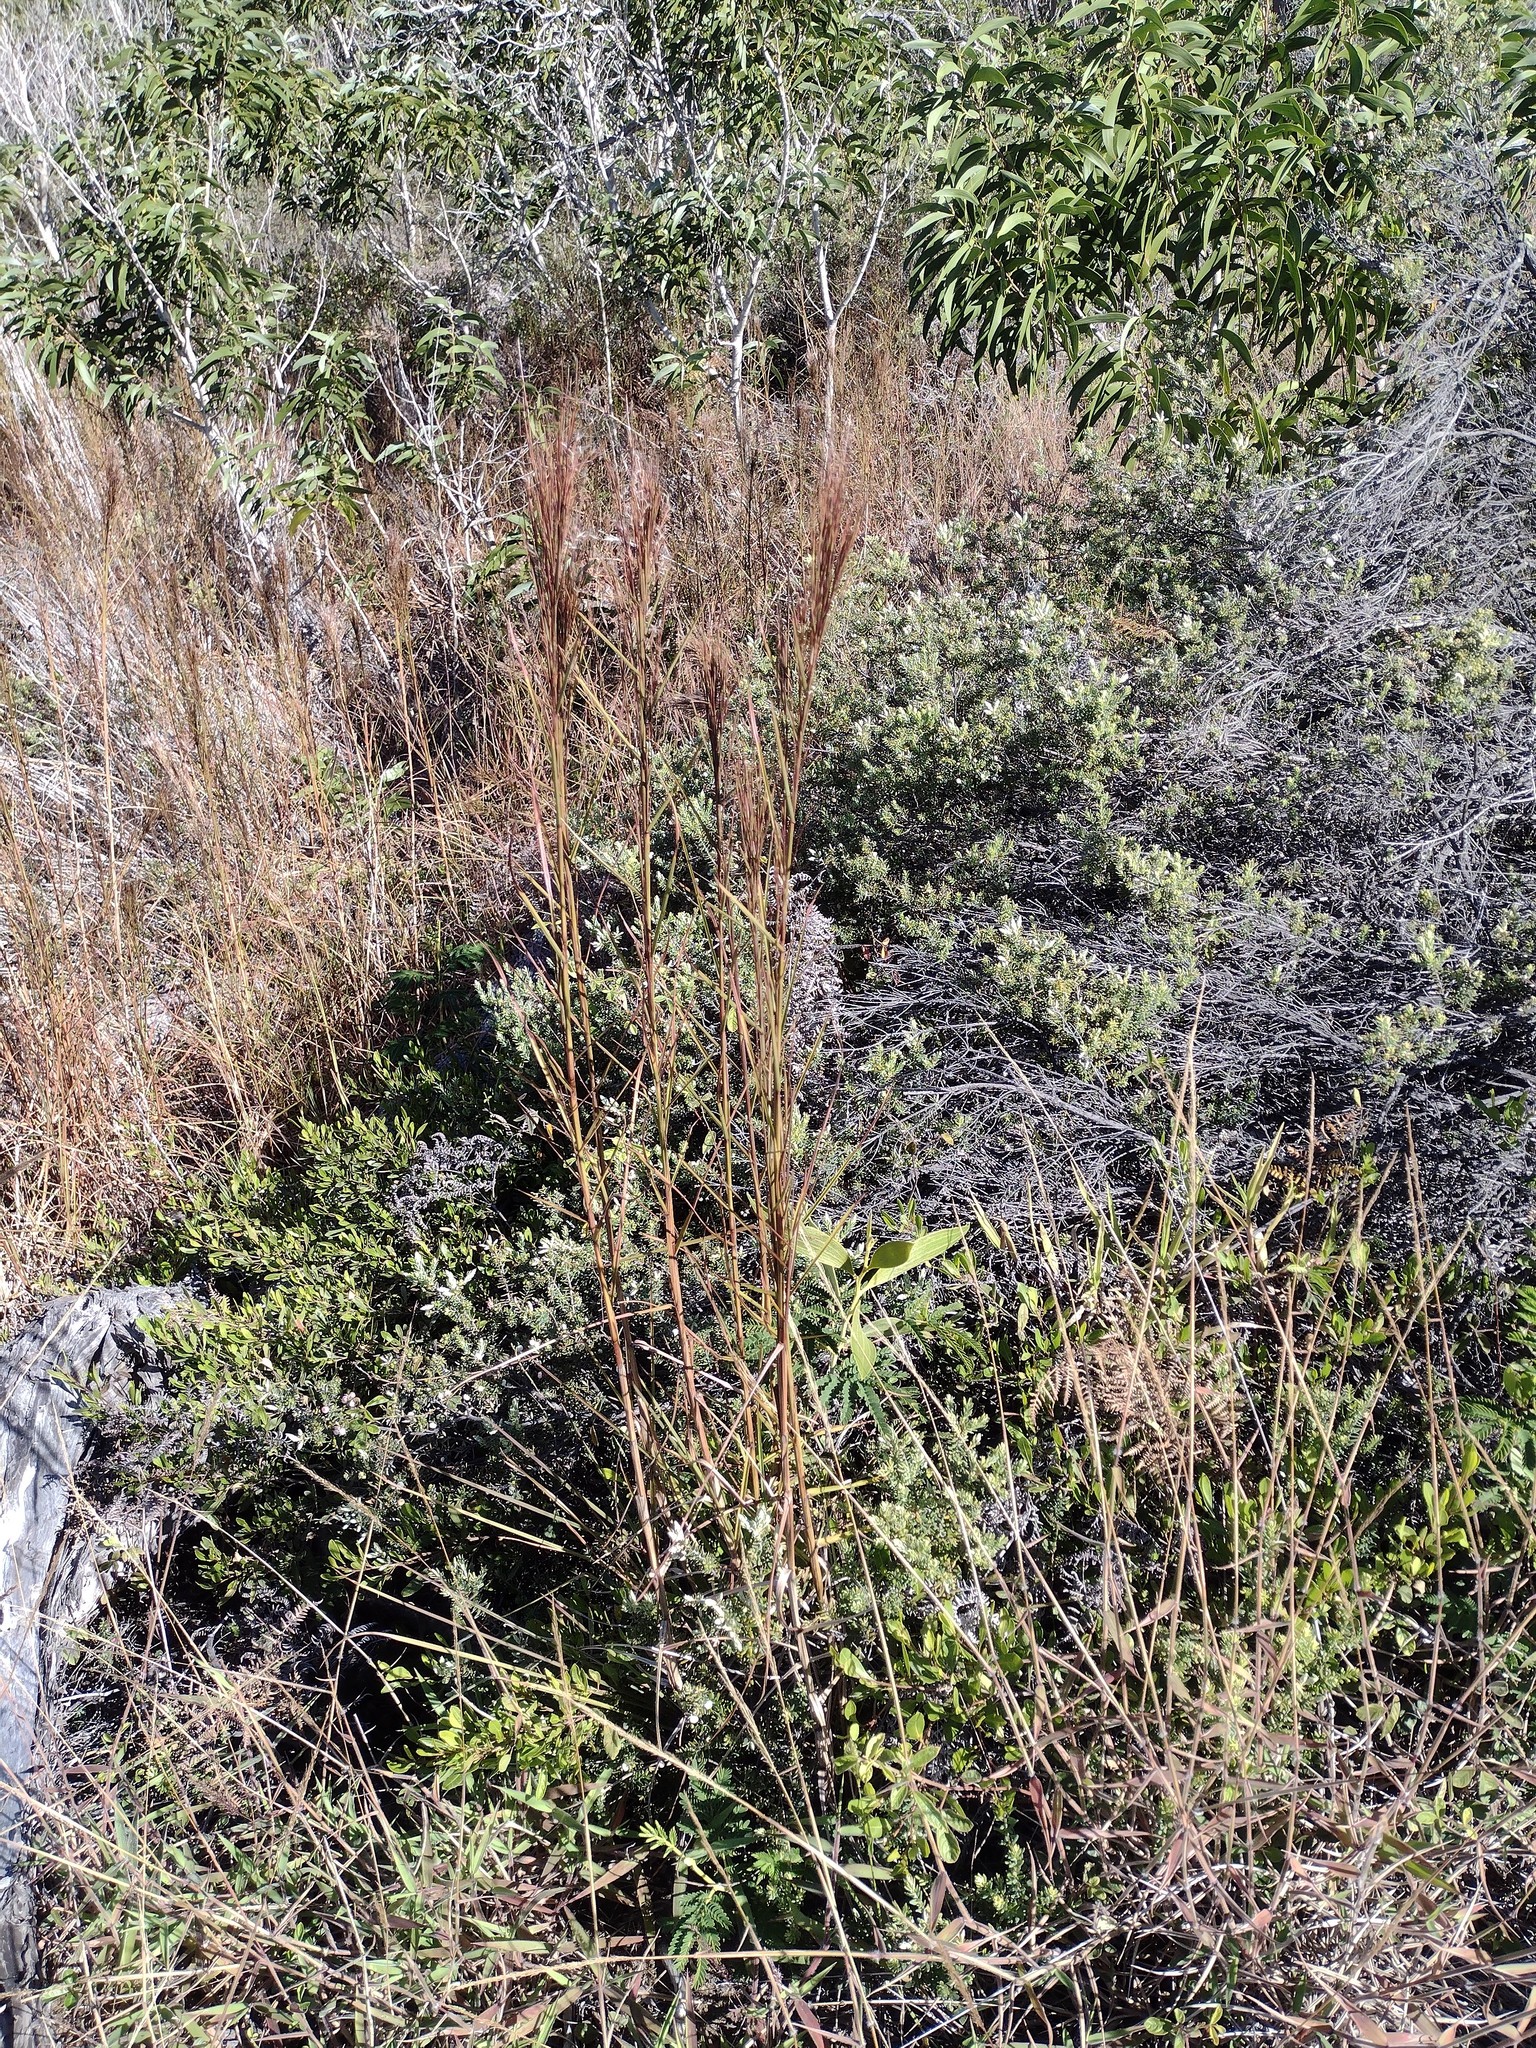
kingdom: Plantae
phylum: Tracheophyta
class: Liliopsida
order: Poales
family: Poaceae
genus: Schizachyrium
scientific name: Schizachyrium microstachyum
